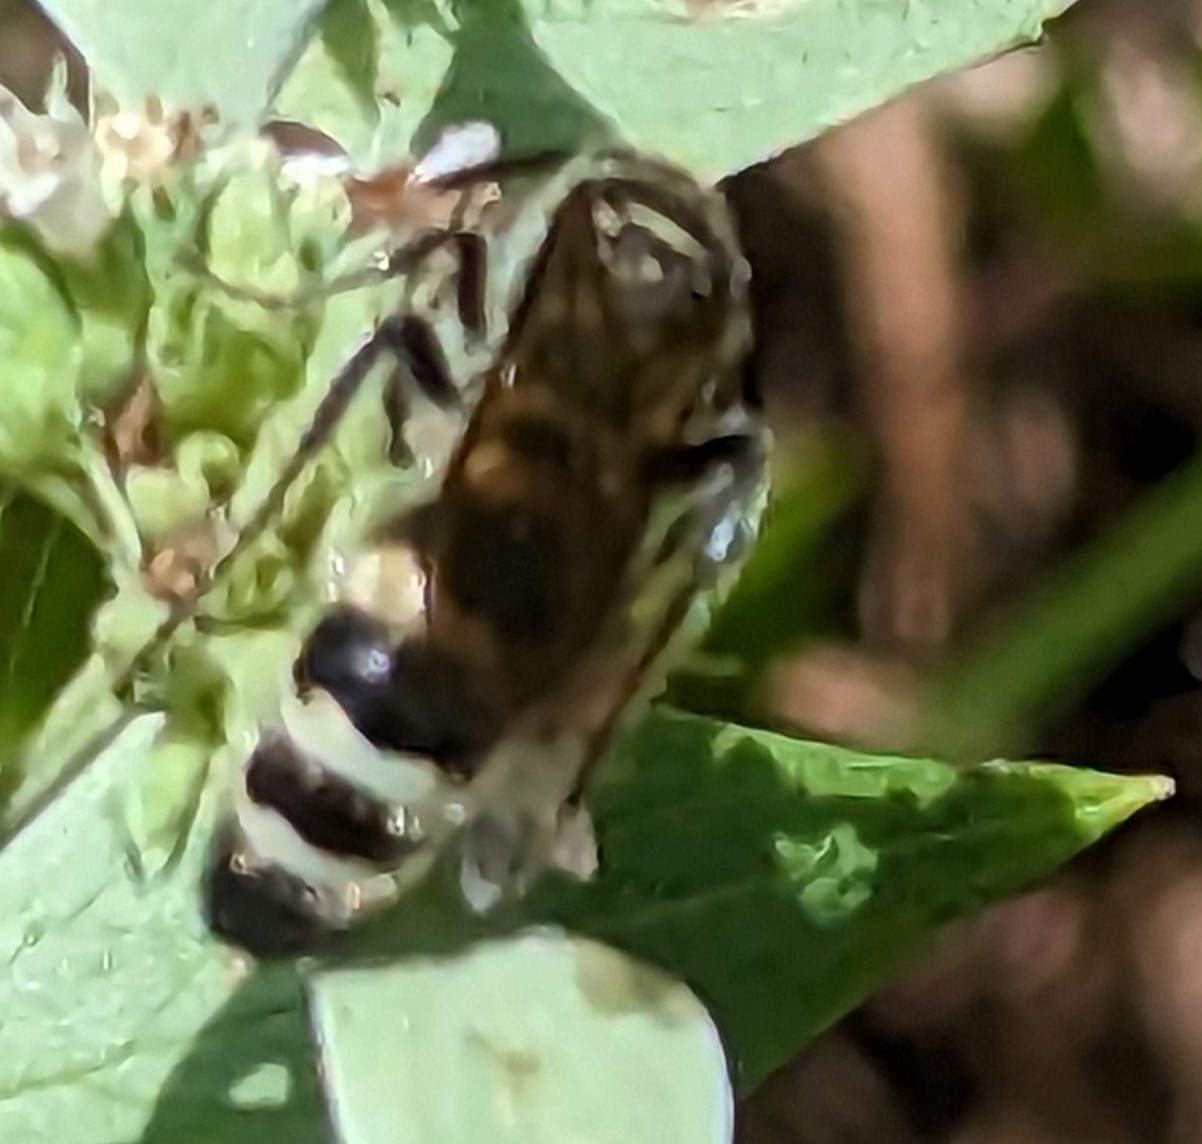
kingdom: Animalia
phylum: Arthropoda
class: Insecta
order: Hymenoptera
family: Scoliidae
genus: Dielis
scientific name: Dielis
